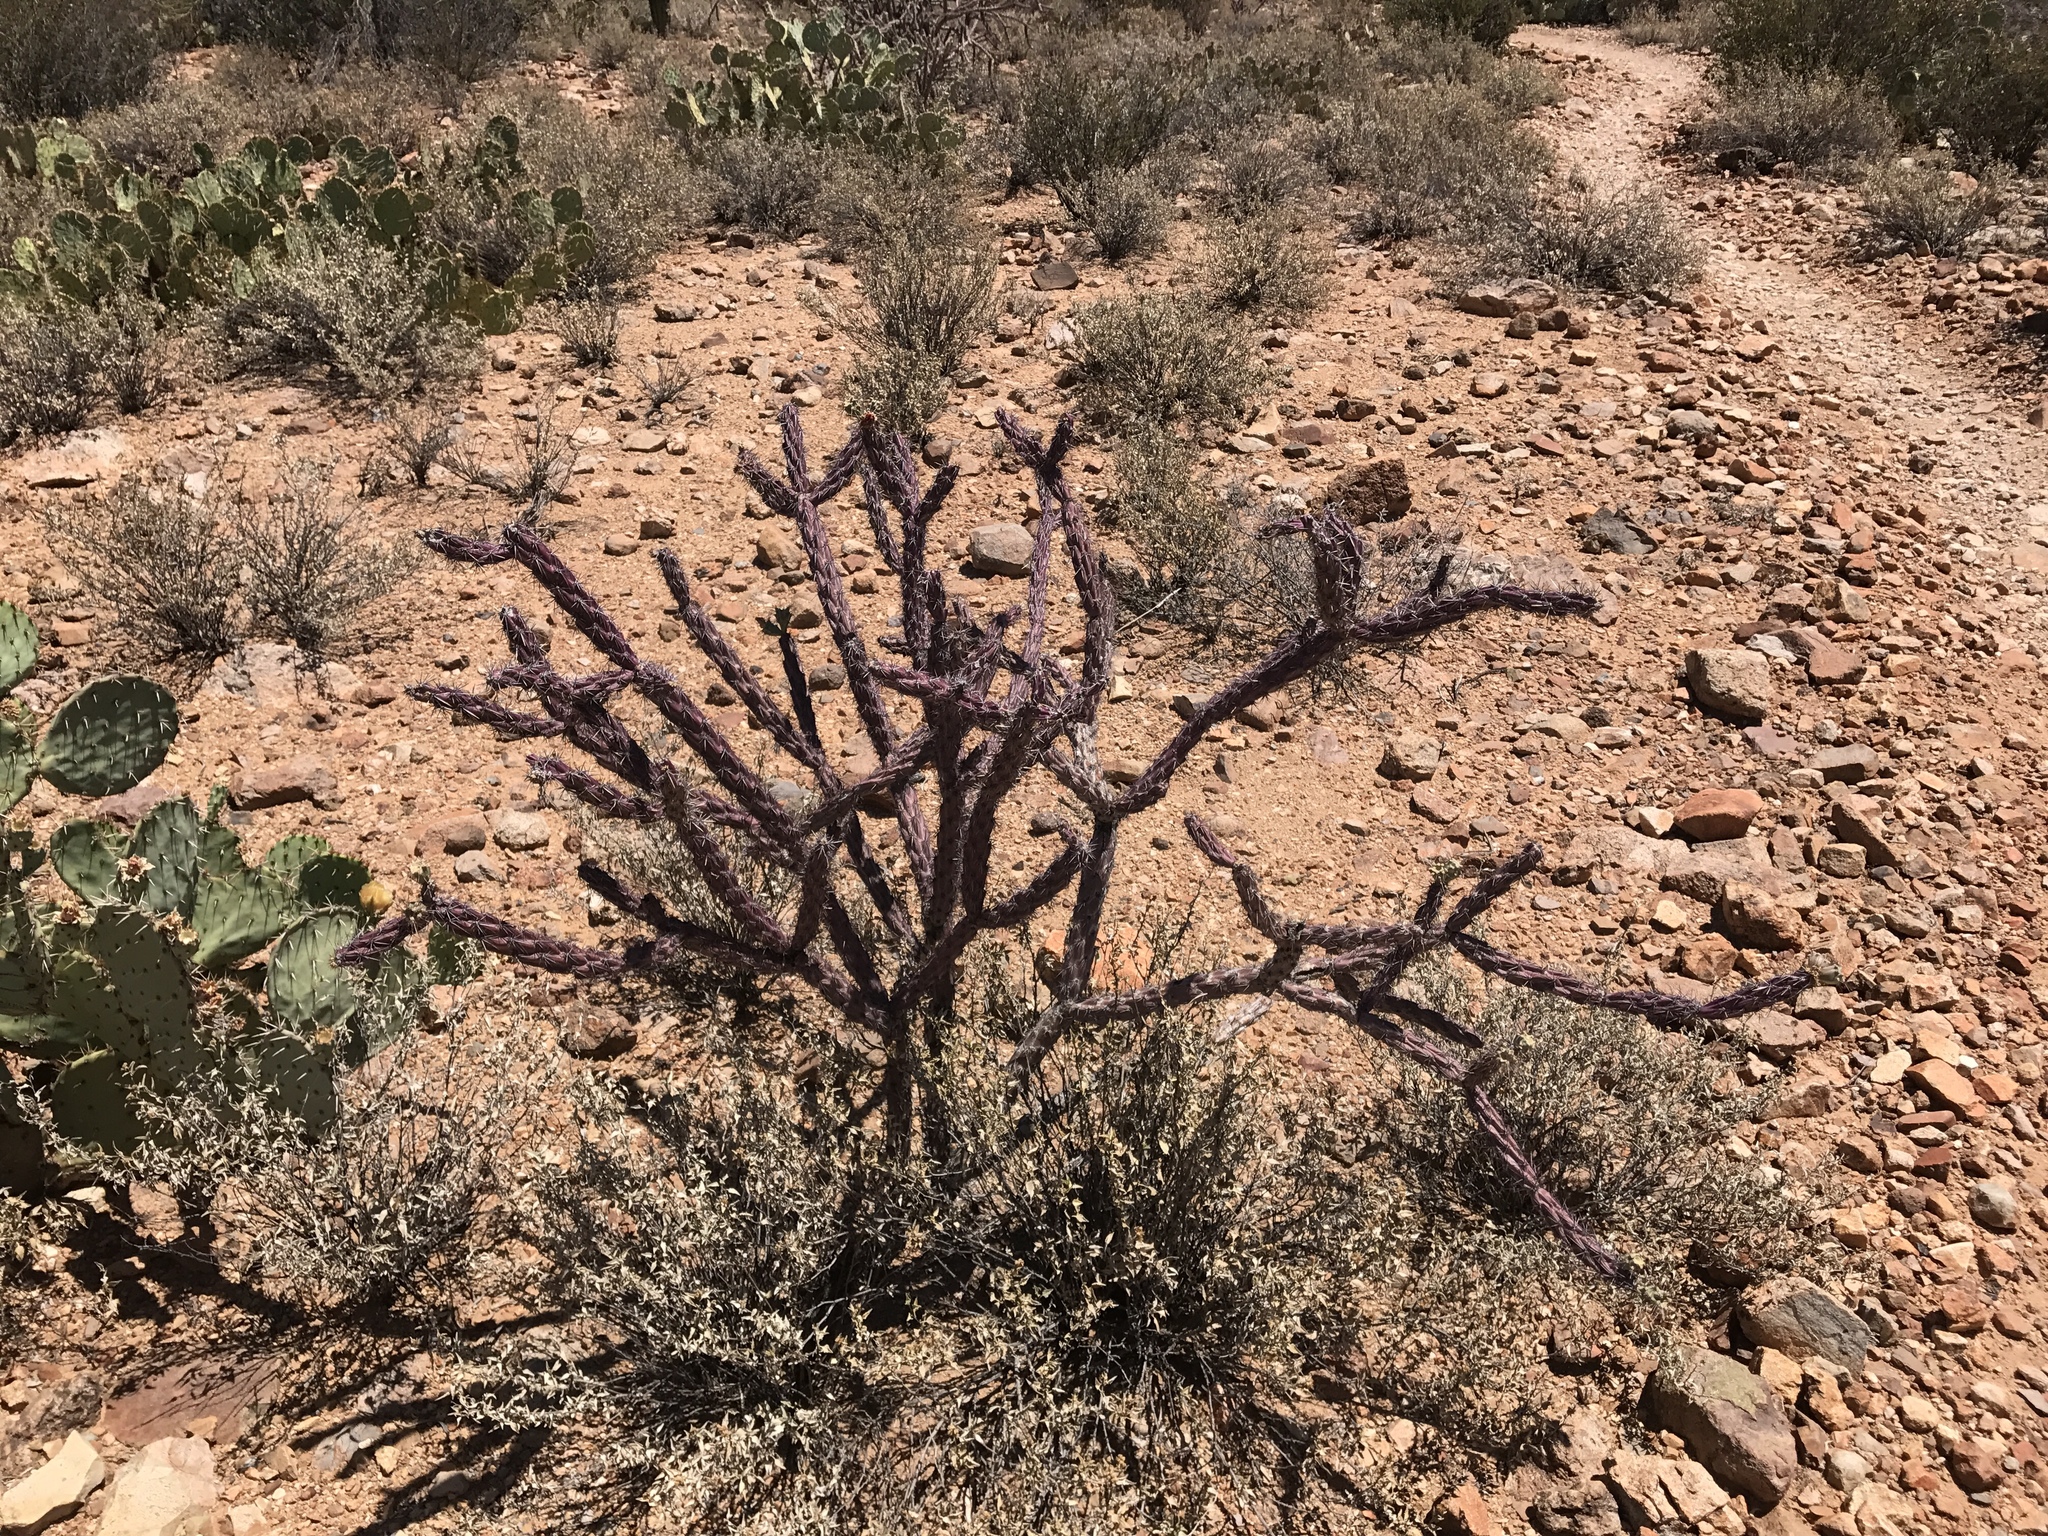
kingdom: Plantae
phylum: Tracheophyta
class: Magnoliopsida
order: Caryophyllales
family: Cactaceae
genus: Cylindropuntia
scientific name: Cylindropuntia thurberi
